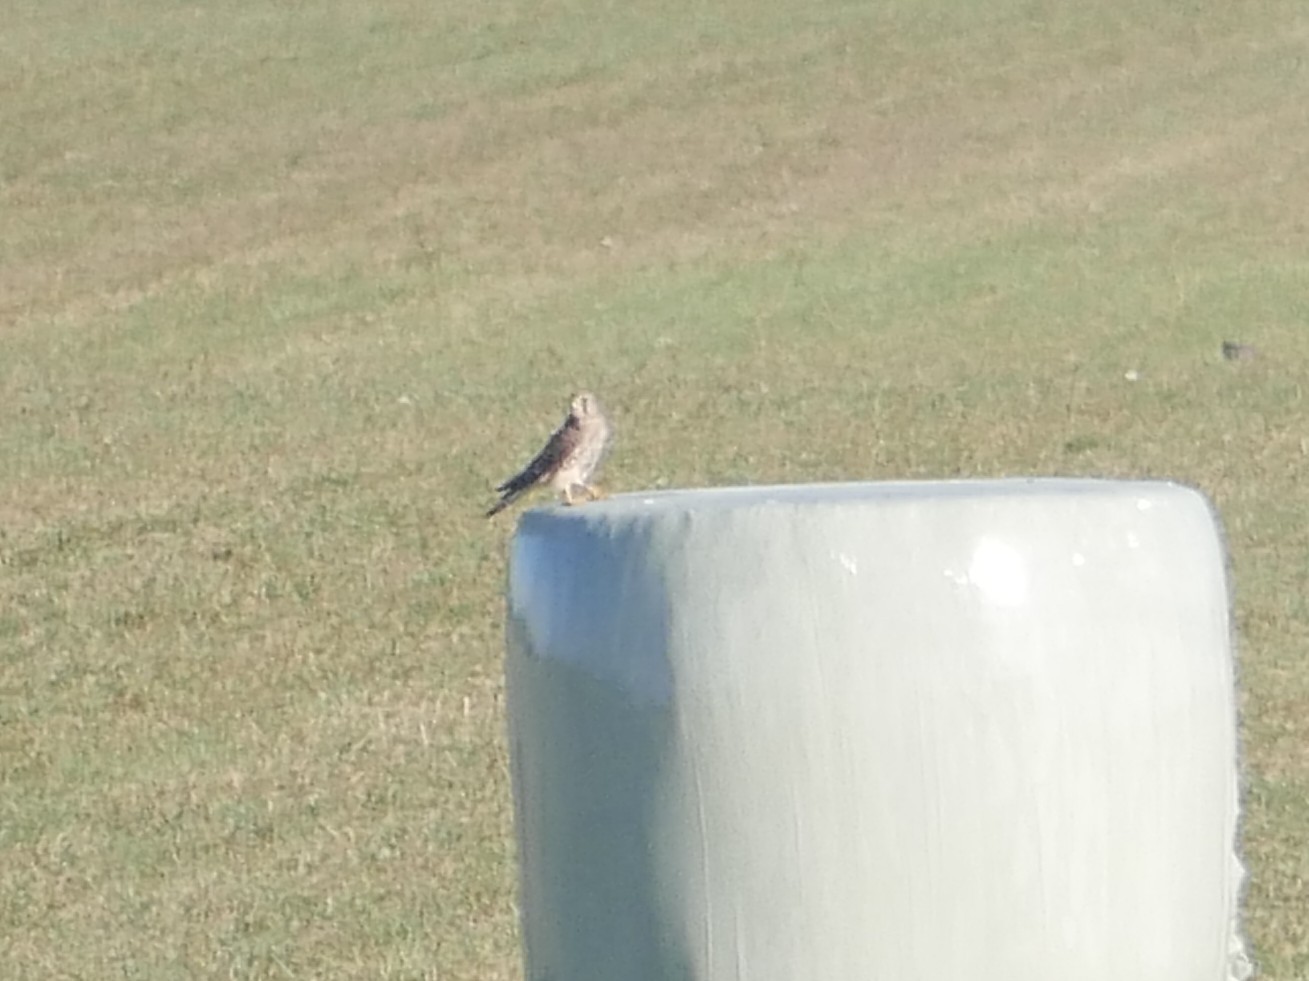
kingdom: Animalia
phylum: Chordata
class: Aves
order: Falconiformes
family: Falconidae
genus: Falco
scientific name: Falco tinnunculus
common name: Common kestrel
